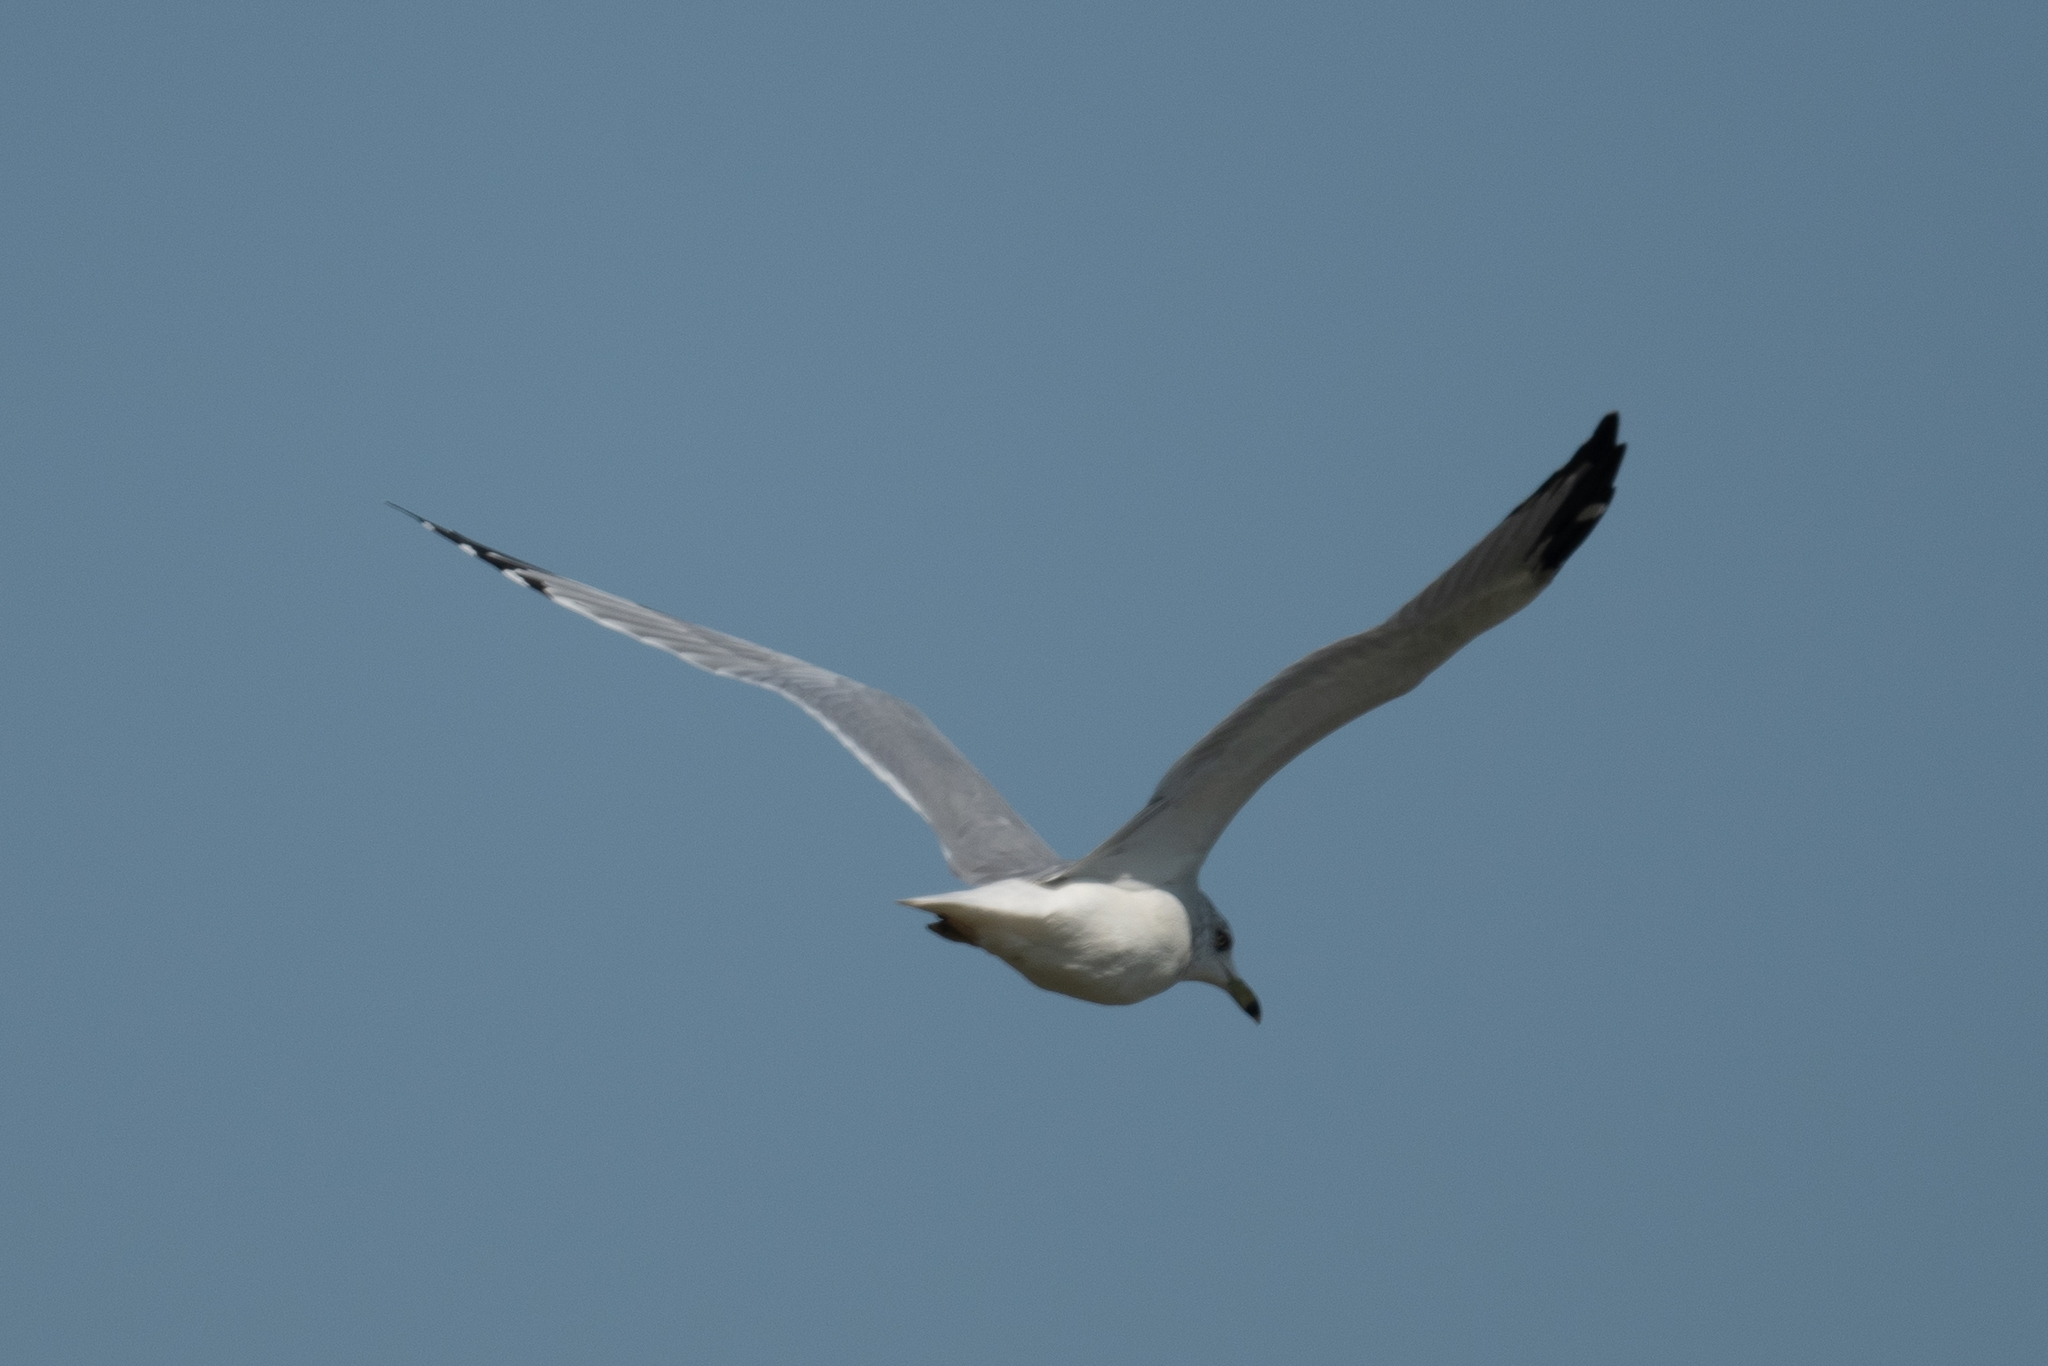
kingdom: Animalia
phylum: Chordata
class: Aves
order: Charadriiformes
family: Laridae
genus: Larus
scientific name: Larus delawarensis
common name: Ring-billed gull
